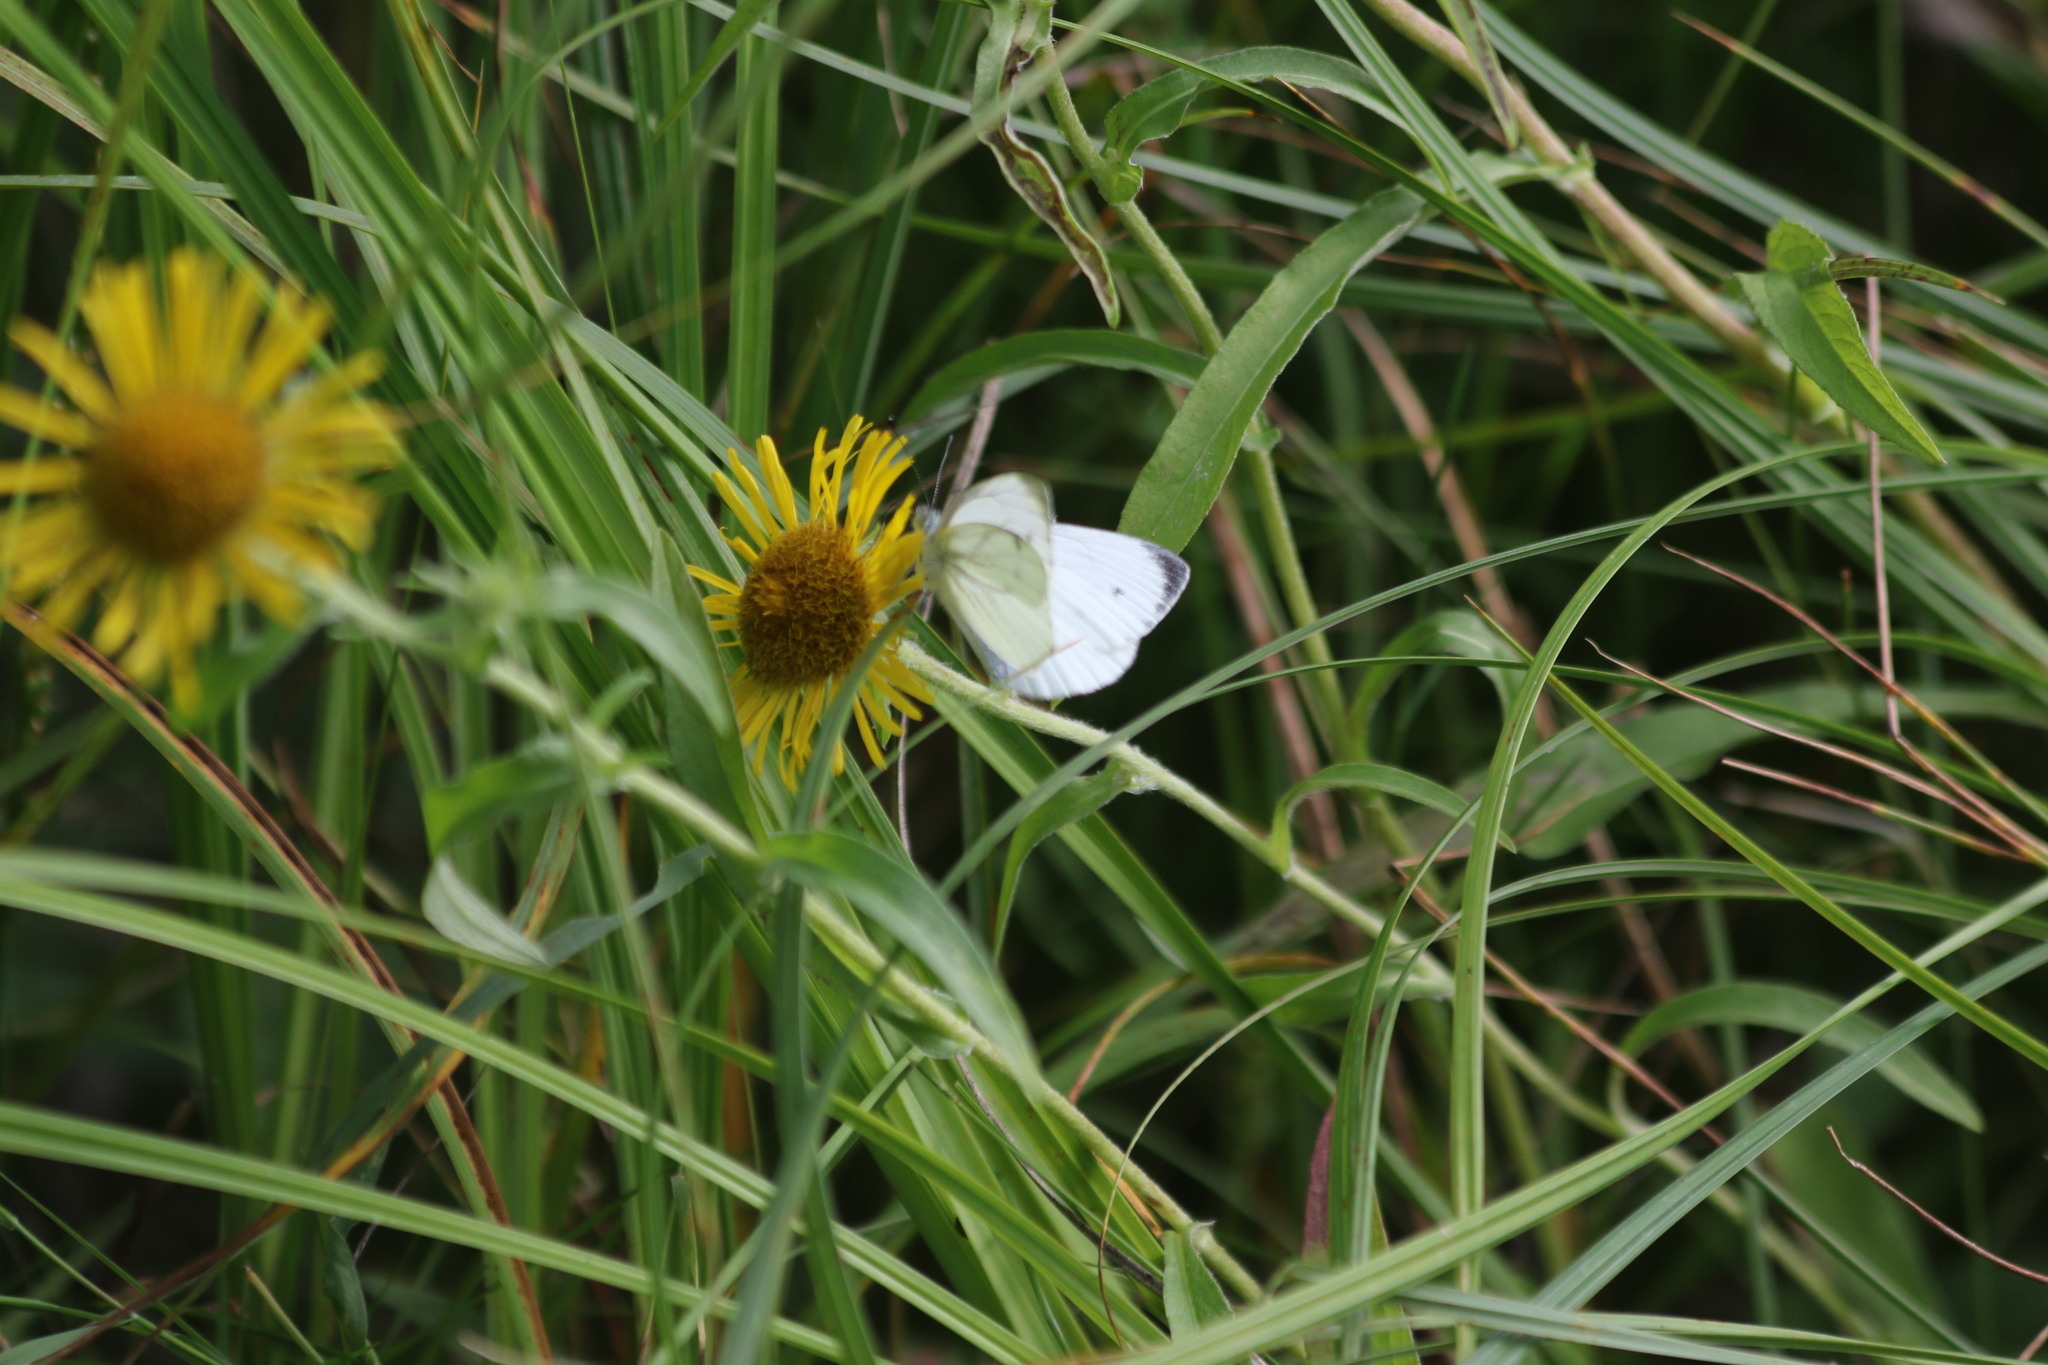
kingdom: Animalia
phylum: Arthropoda
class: Insecta
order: Lepidoptera
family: Pieridae
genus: Pieris
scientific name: Pieris napi
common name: Green-veined white
